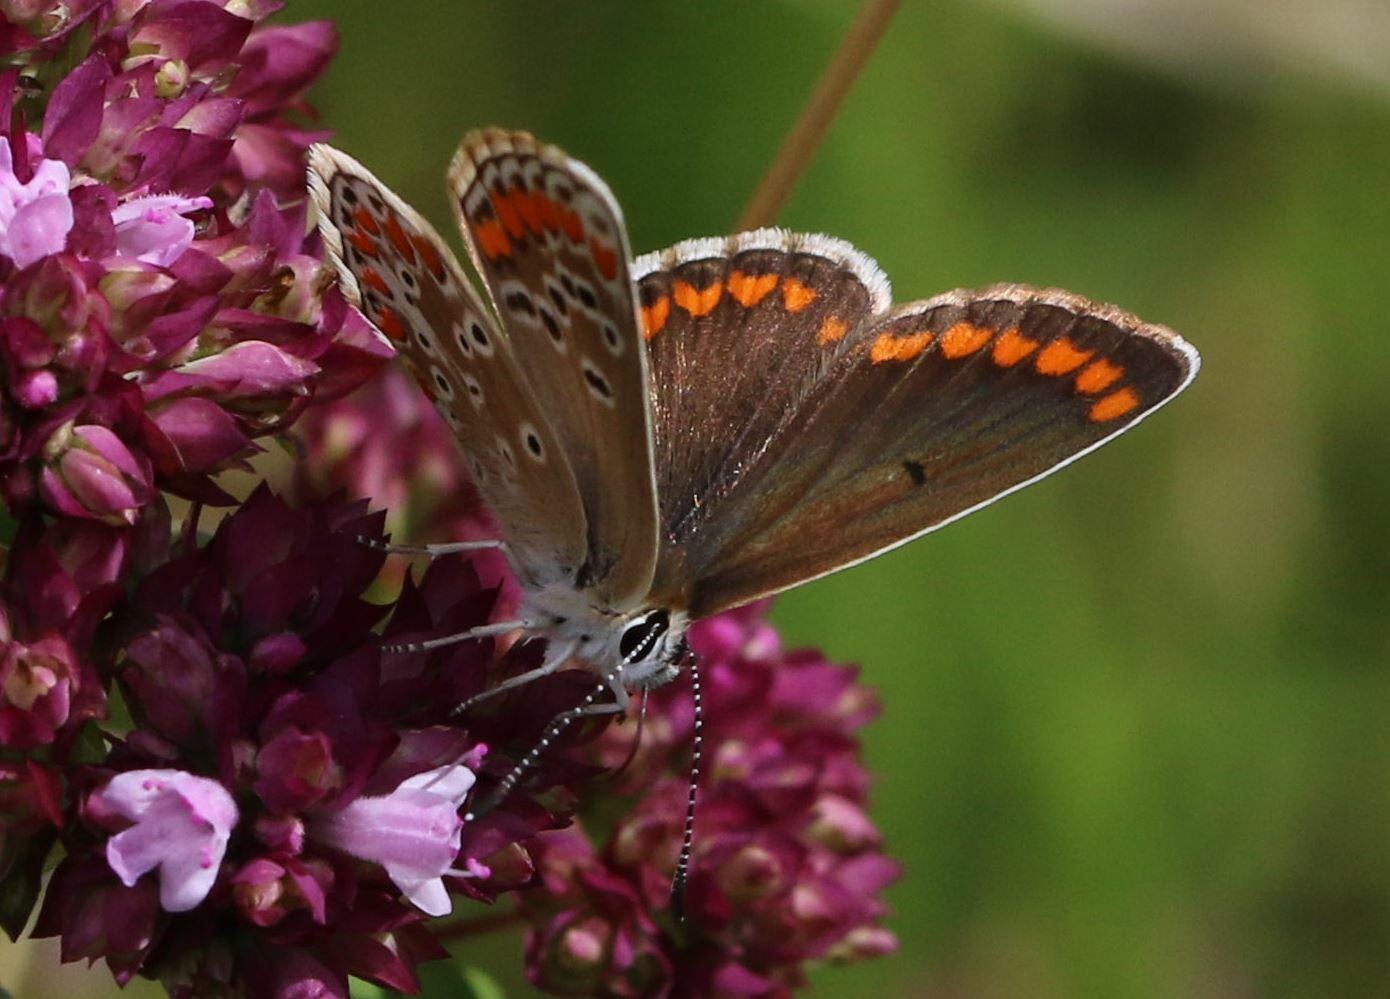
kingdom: Animalia
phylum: Arthropoda
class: Insecta
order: Lepidoptera
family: Lycaenidae
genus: Aricia
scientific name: Aricia agestis
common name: Brown argus
